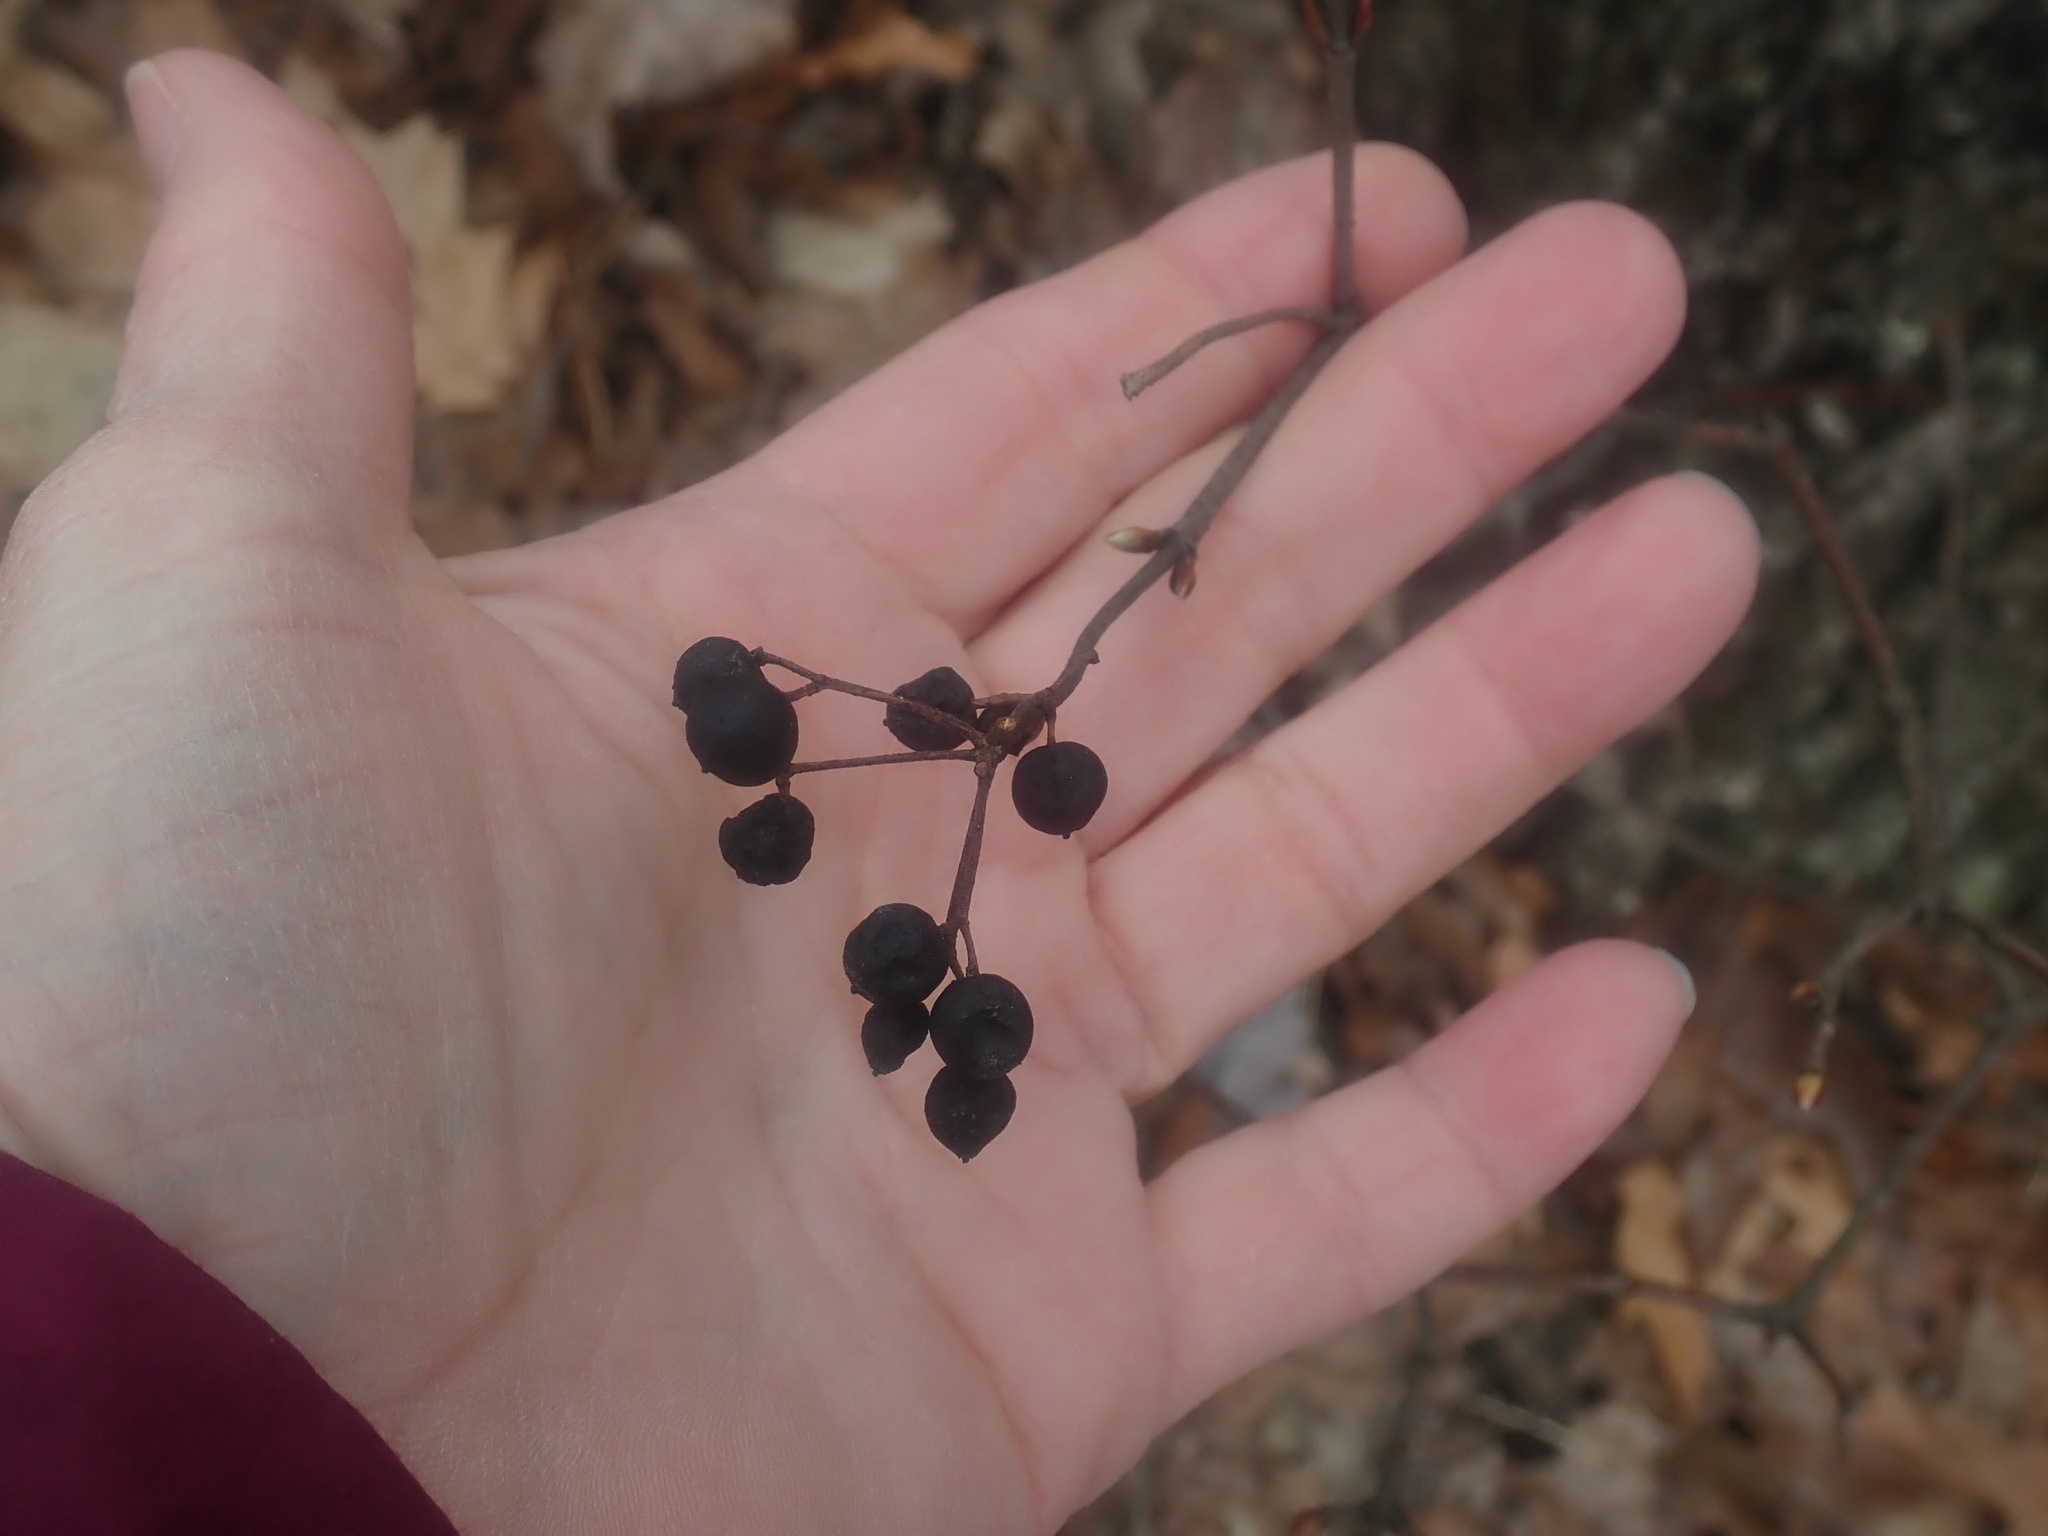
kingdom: Plantae
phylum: Tracheophyta
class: Magnoliopsida
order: Dipsacales
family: Viburnaceae
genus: Viburnum
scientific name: Viburnum acerifolium
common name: Dockmackie
